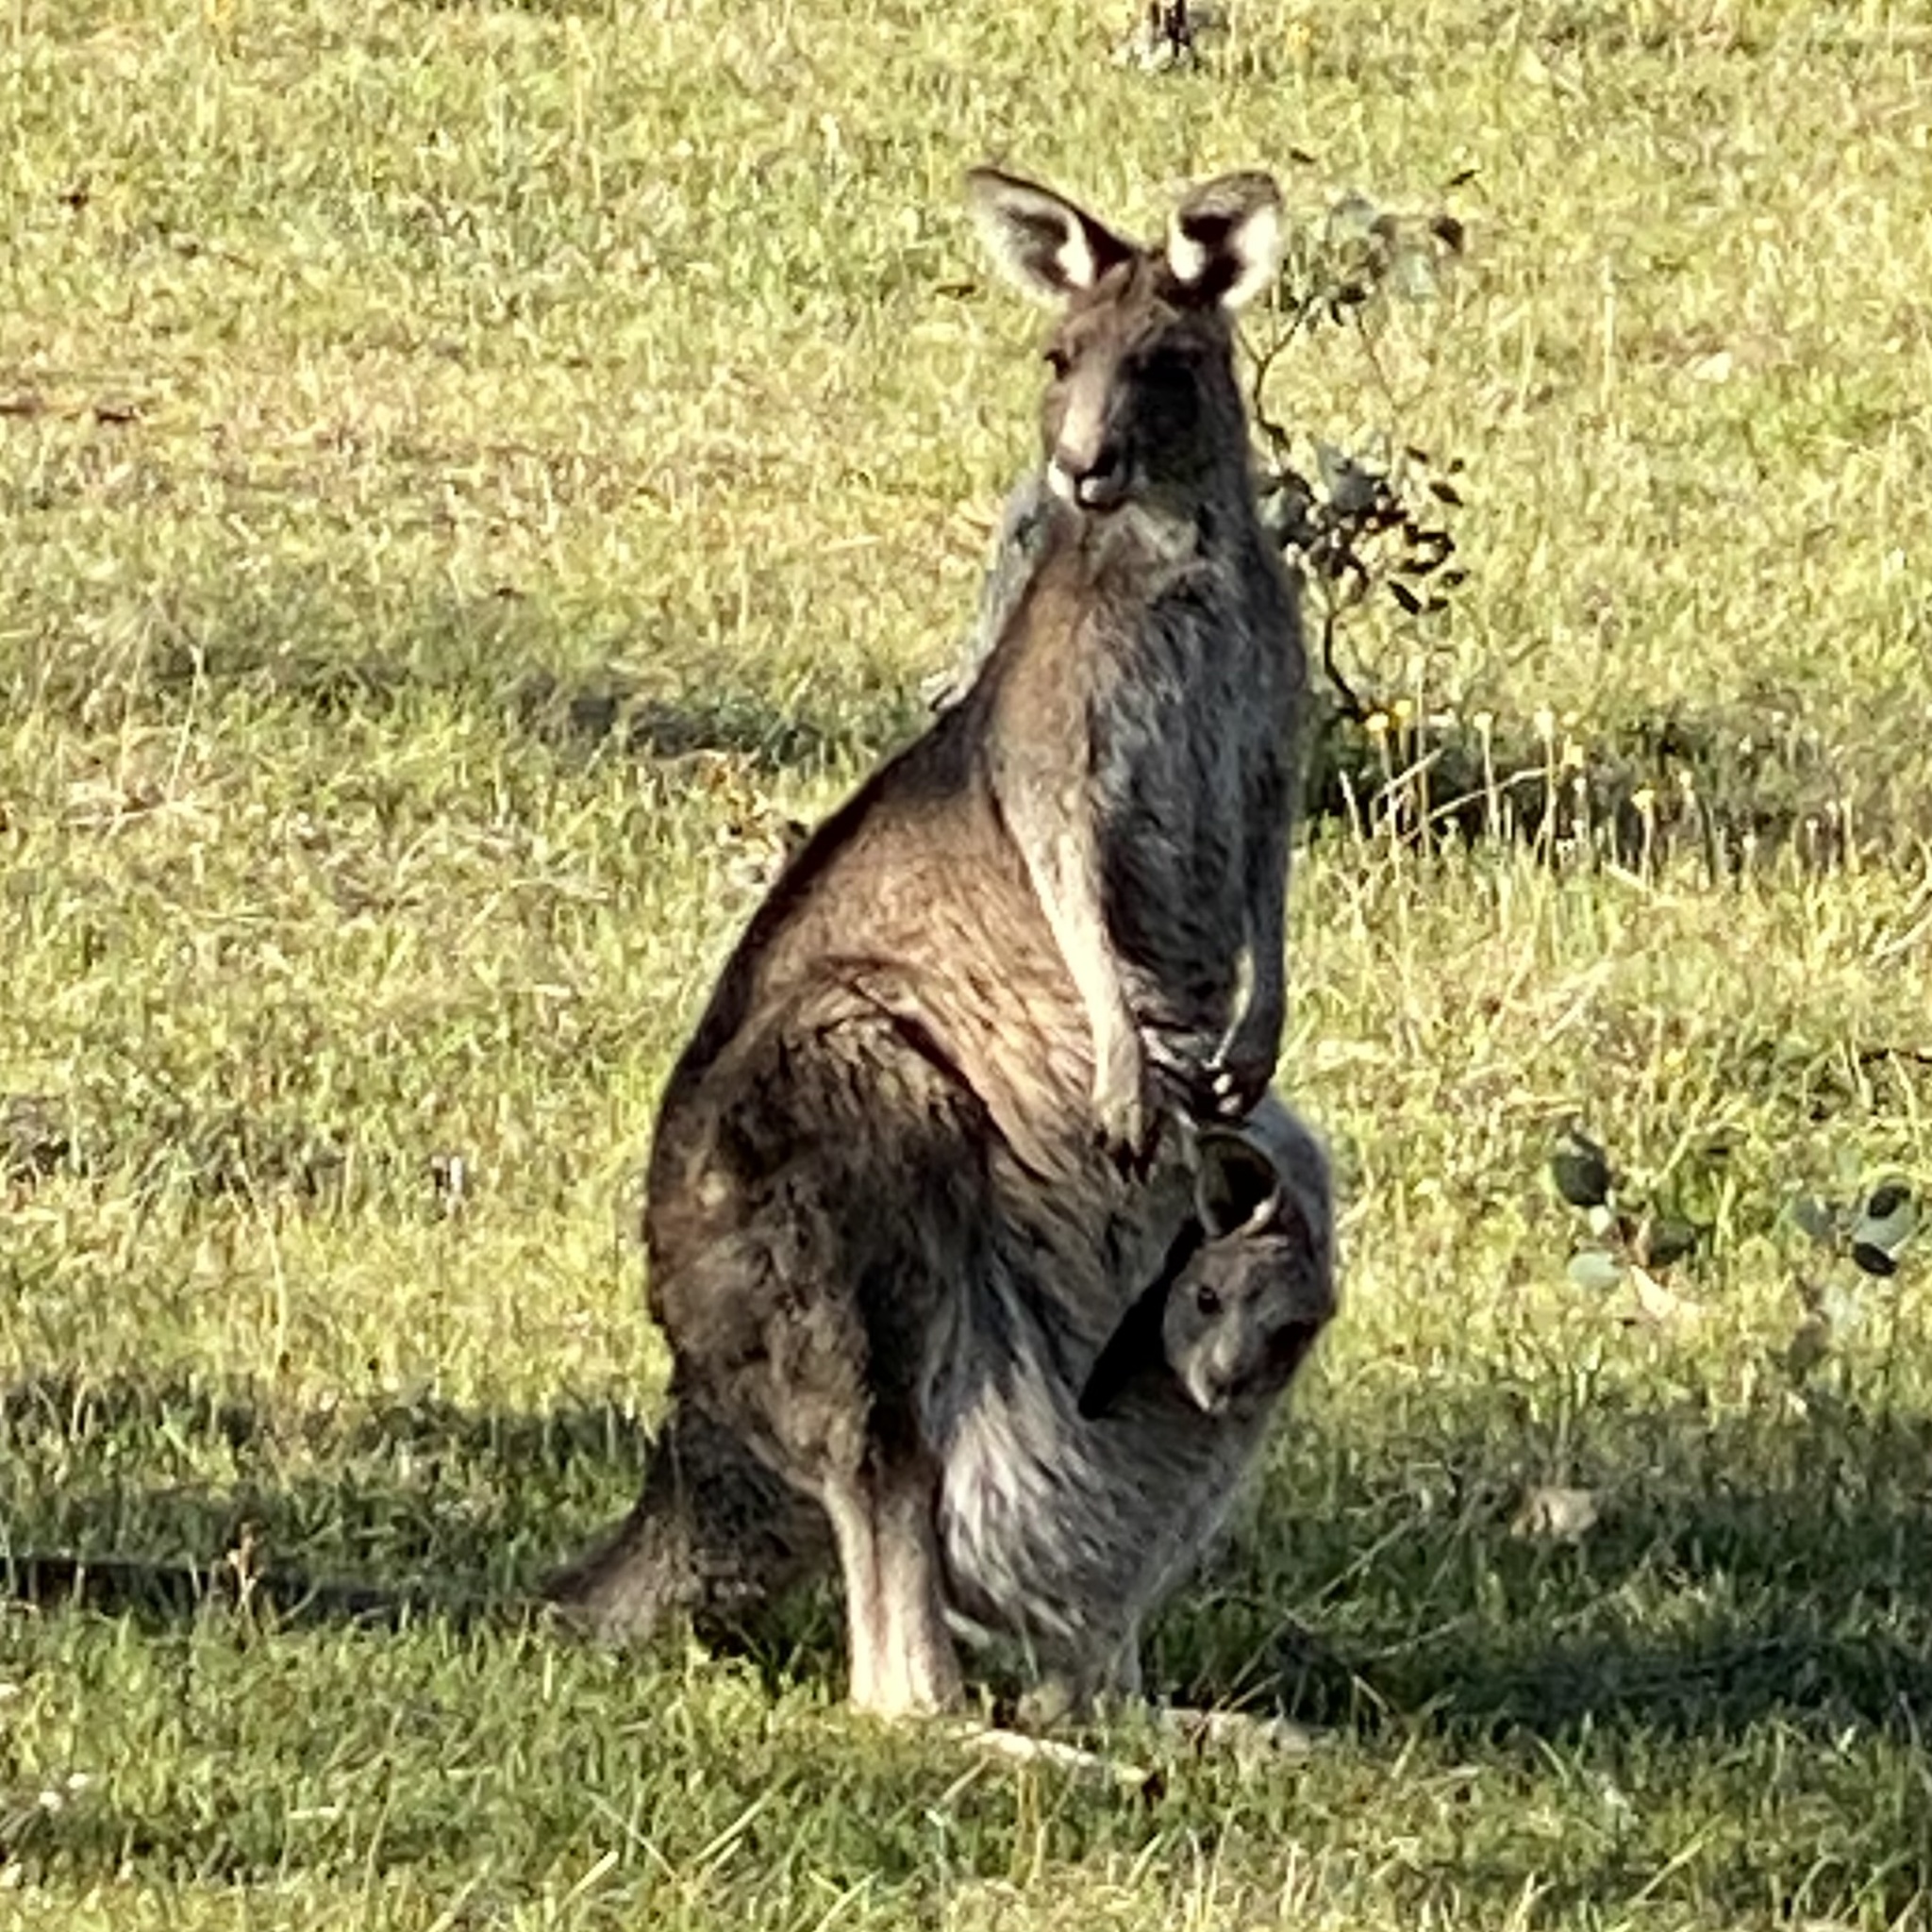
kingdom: Animalia
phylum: Chordata
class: Mammalia
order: Diprotodontia
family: Macropodidae
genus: Macropus
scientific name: Macropus giganteus
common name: Eastern grey kangaroo
